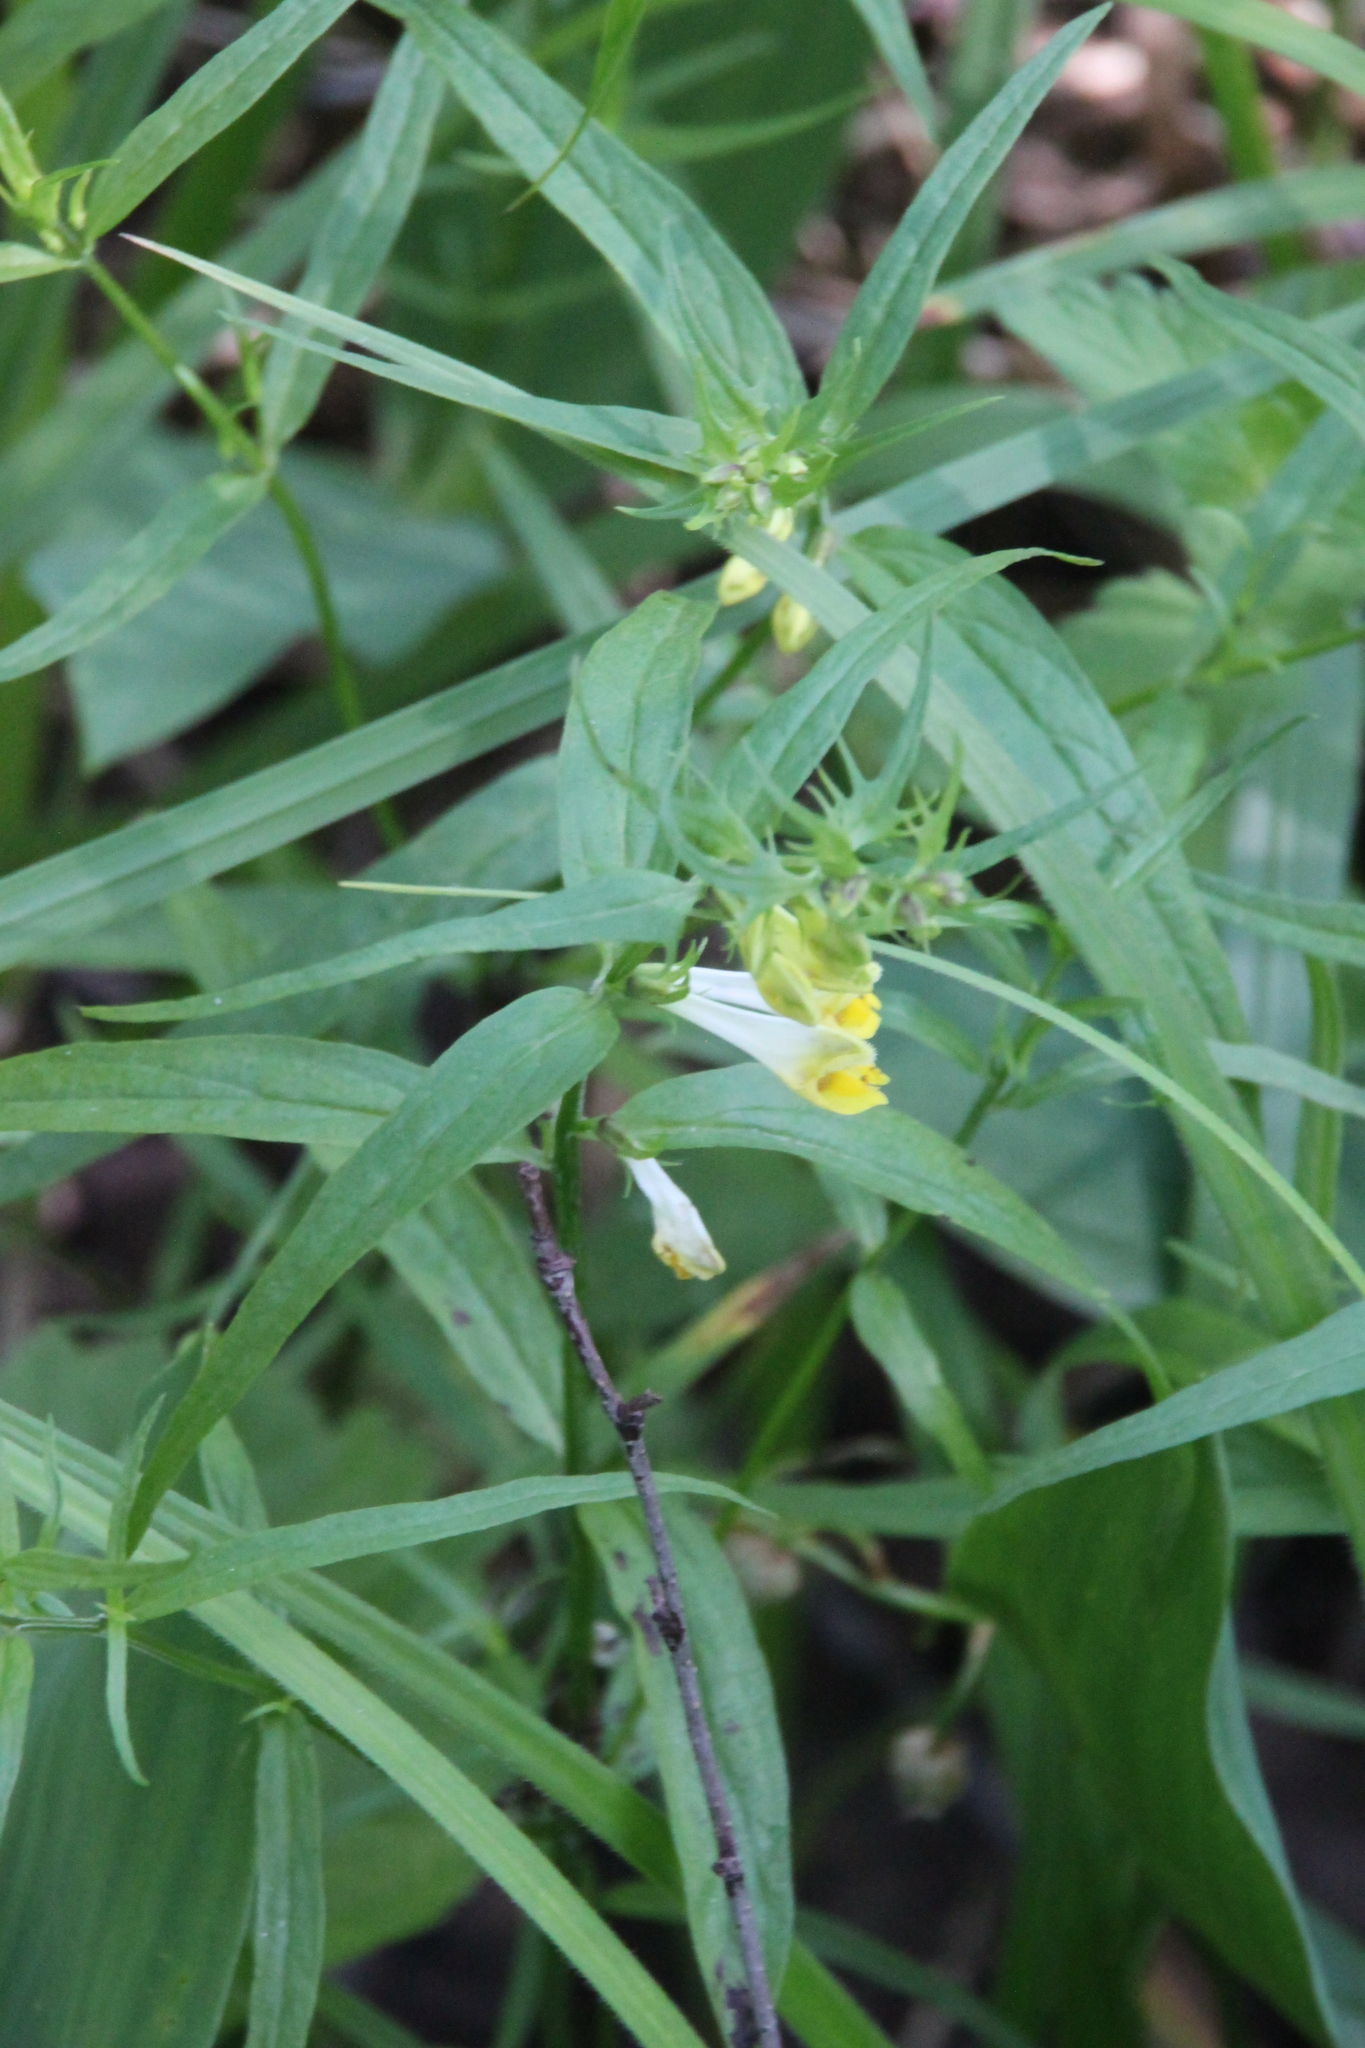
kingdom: Plantae
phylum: Tracheophyta
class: Magnoliopsida
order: Lamiales
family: Orobanchaceae
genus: Melampyrum
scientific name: Melampyrum pratense
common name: Common cow-wheat
